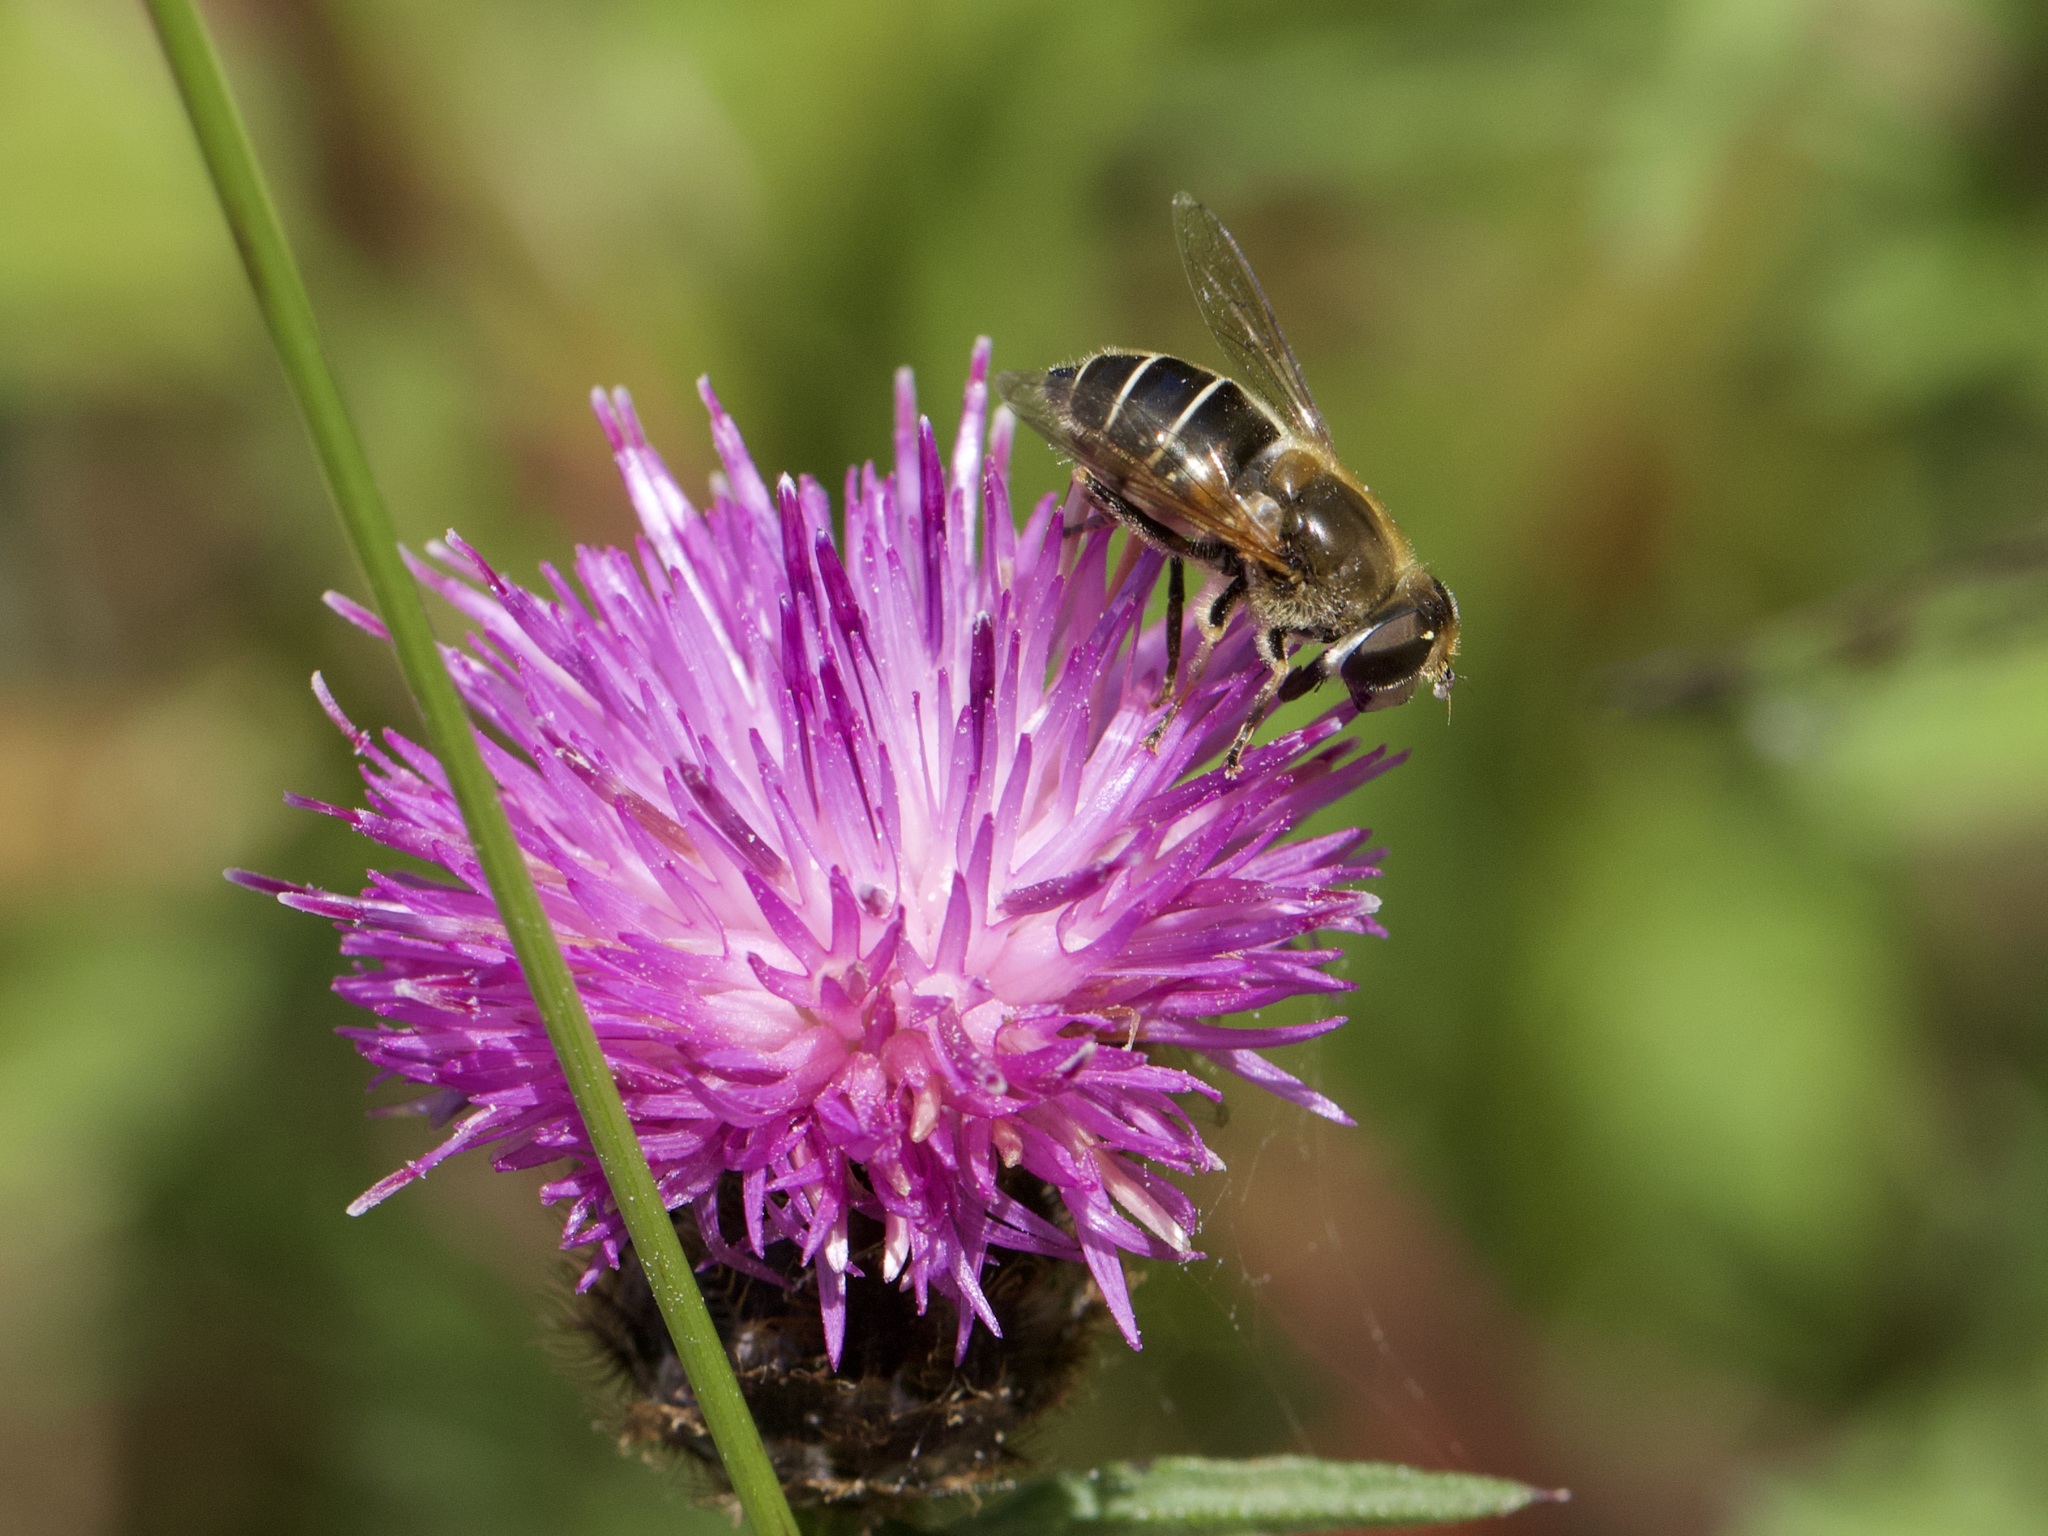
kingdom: Animalia
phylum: Arthropoda
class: Insecta
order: Diptera
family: Syrphidae
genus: Eristalis
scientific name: Eristalis nemorum
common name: Orange-spined drone fly
